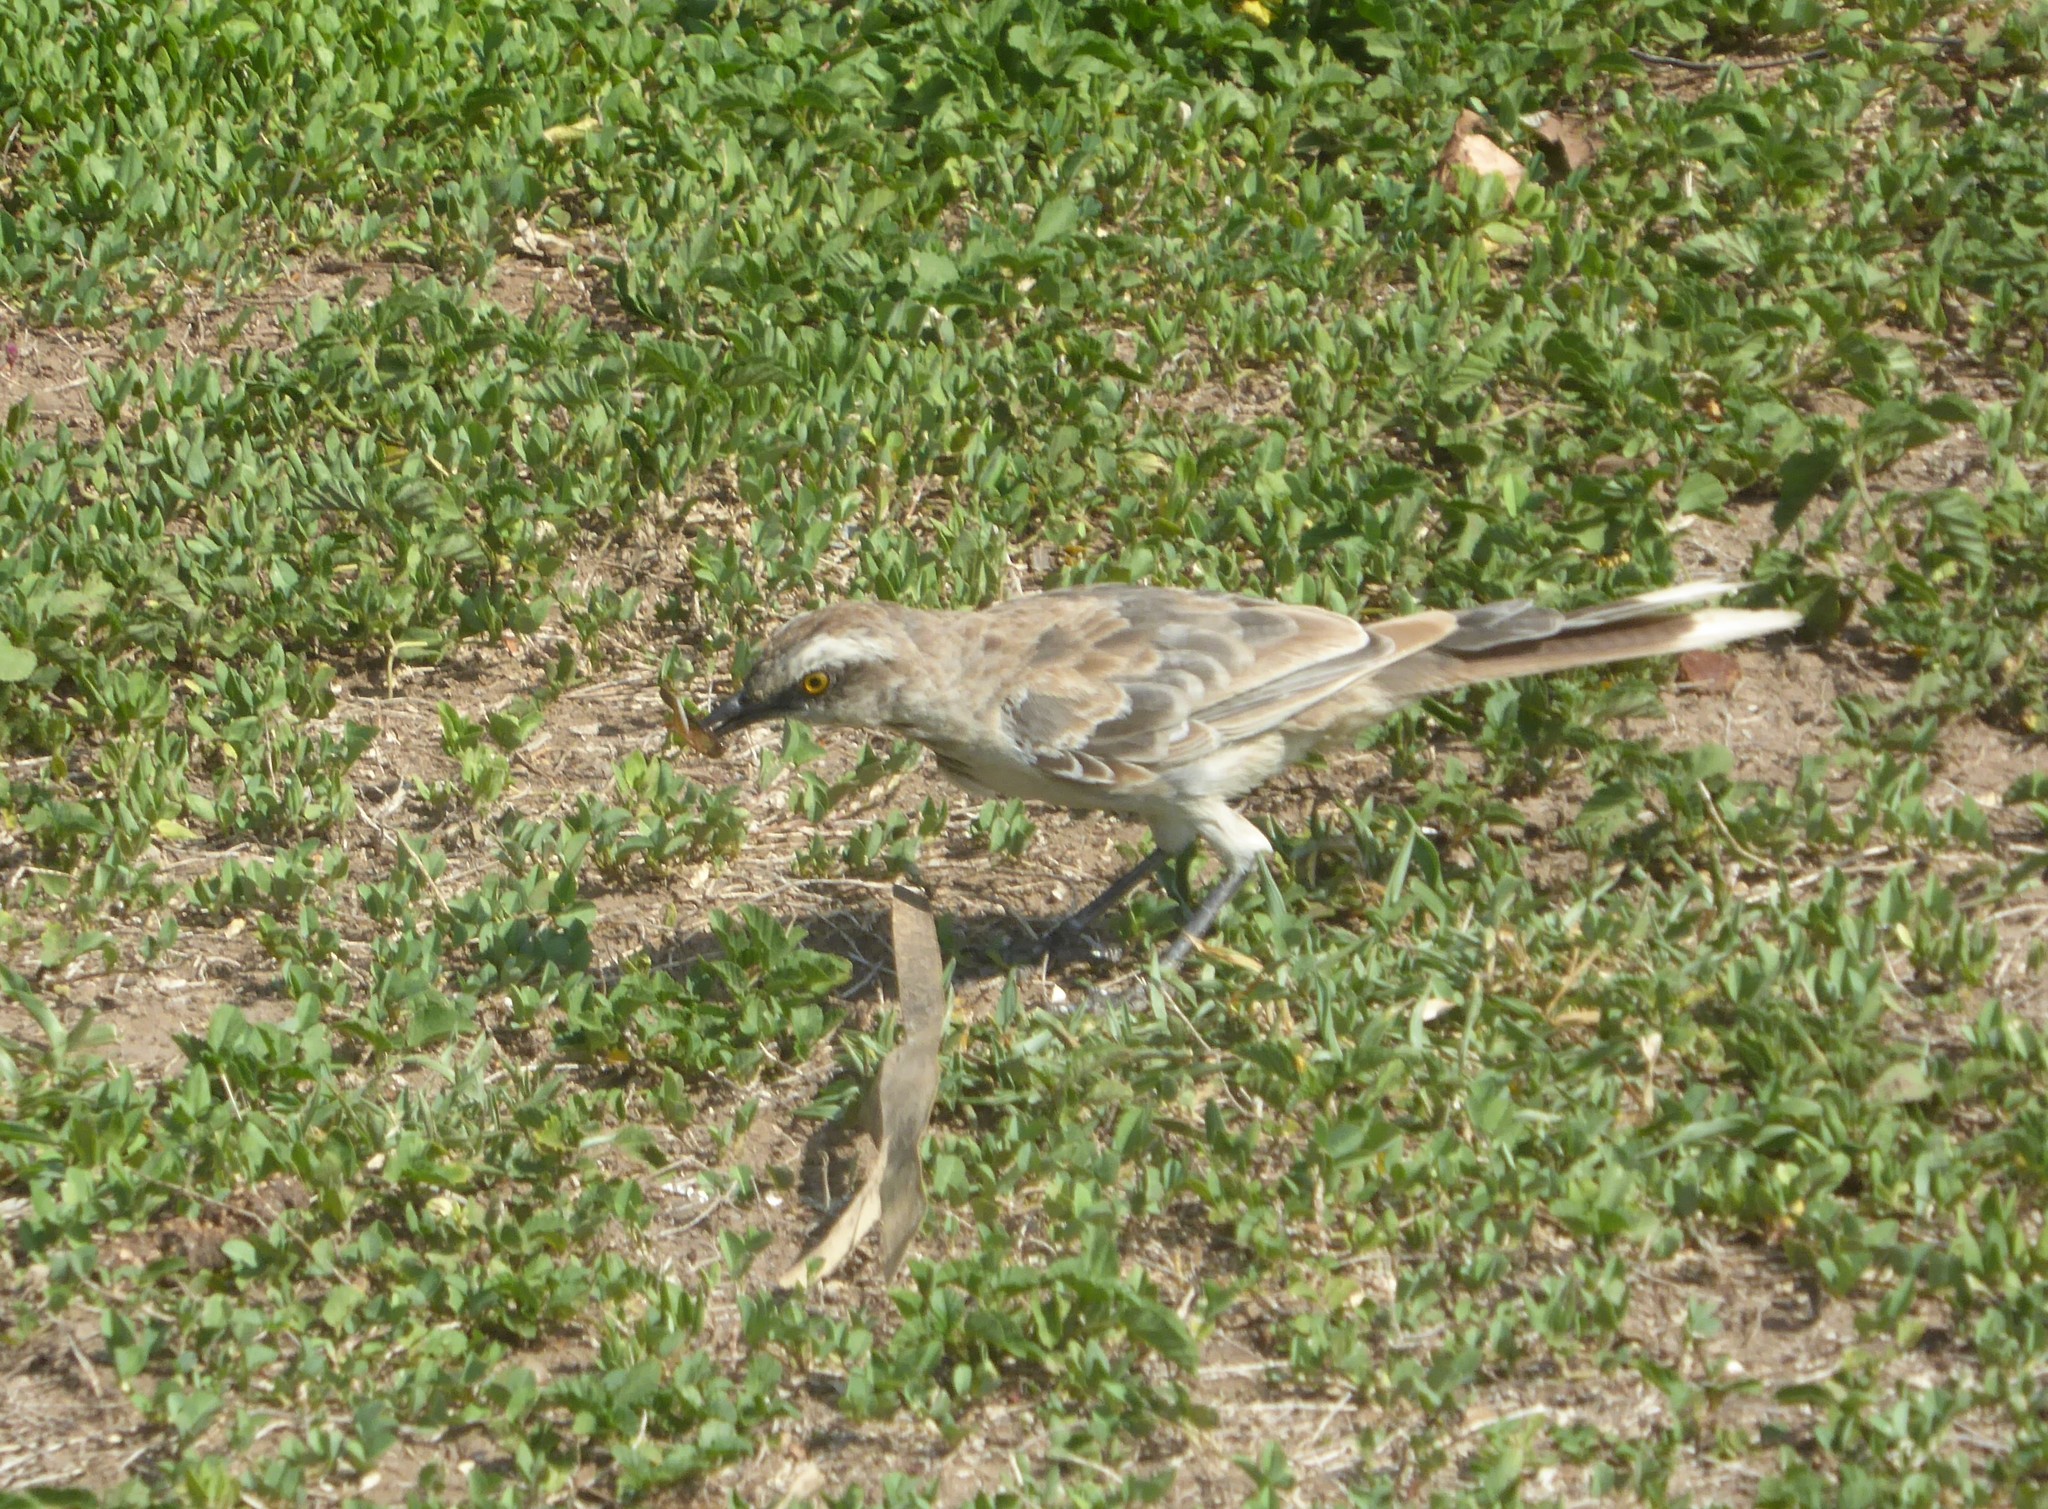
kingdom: Animalia
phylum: Chordata
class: Aves
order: Passeriformes
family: Mimidae
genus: Mimus
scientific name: Mimus saturninus
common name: Chalk-browed mockingbird
